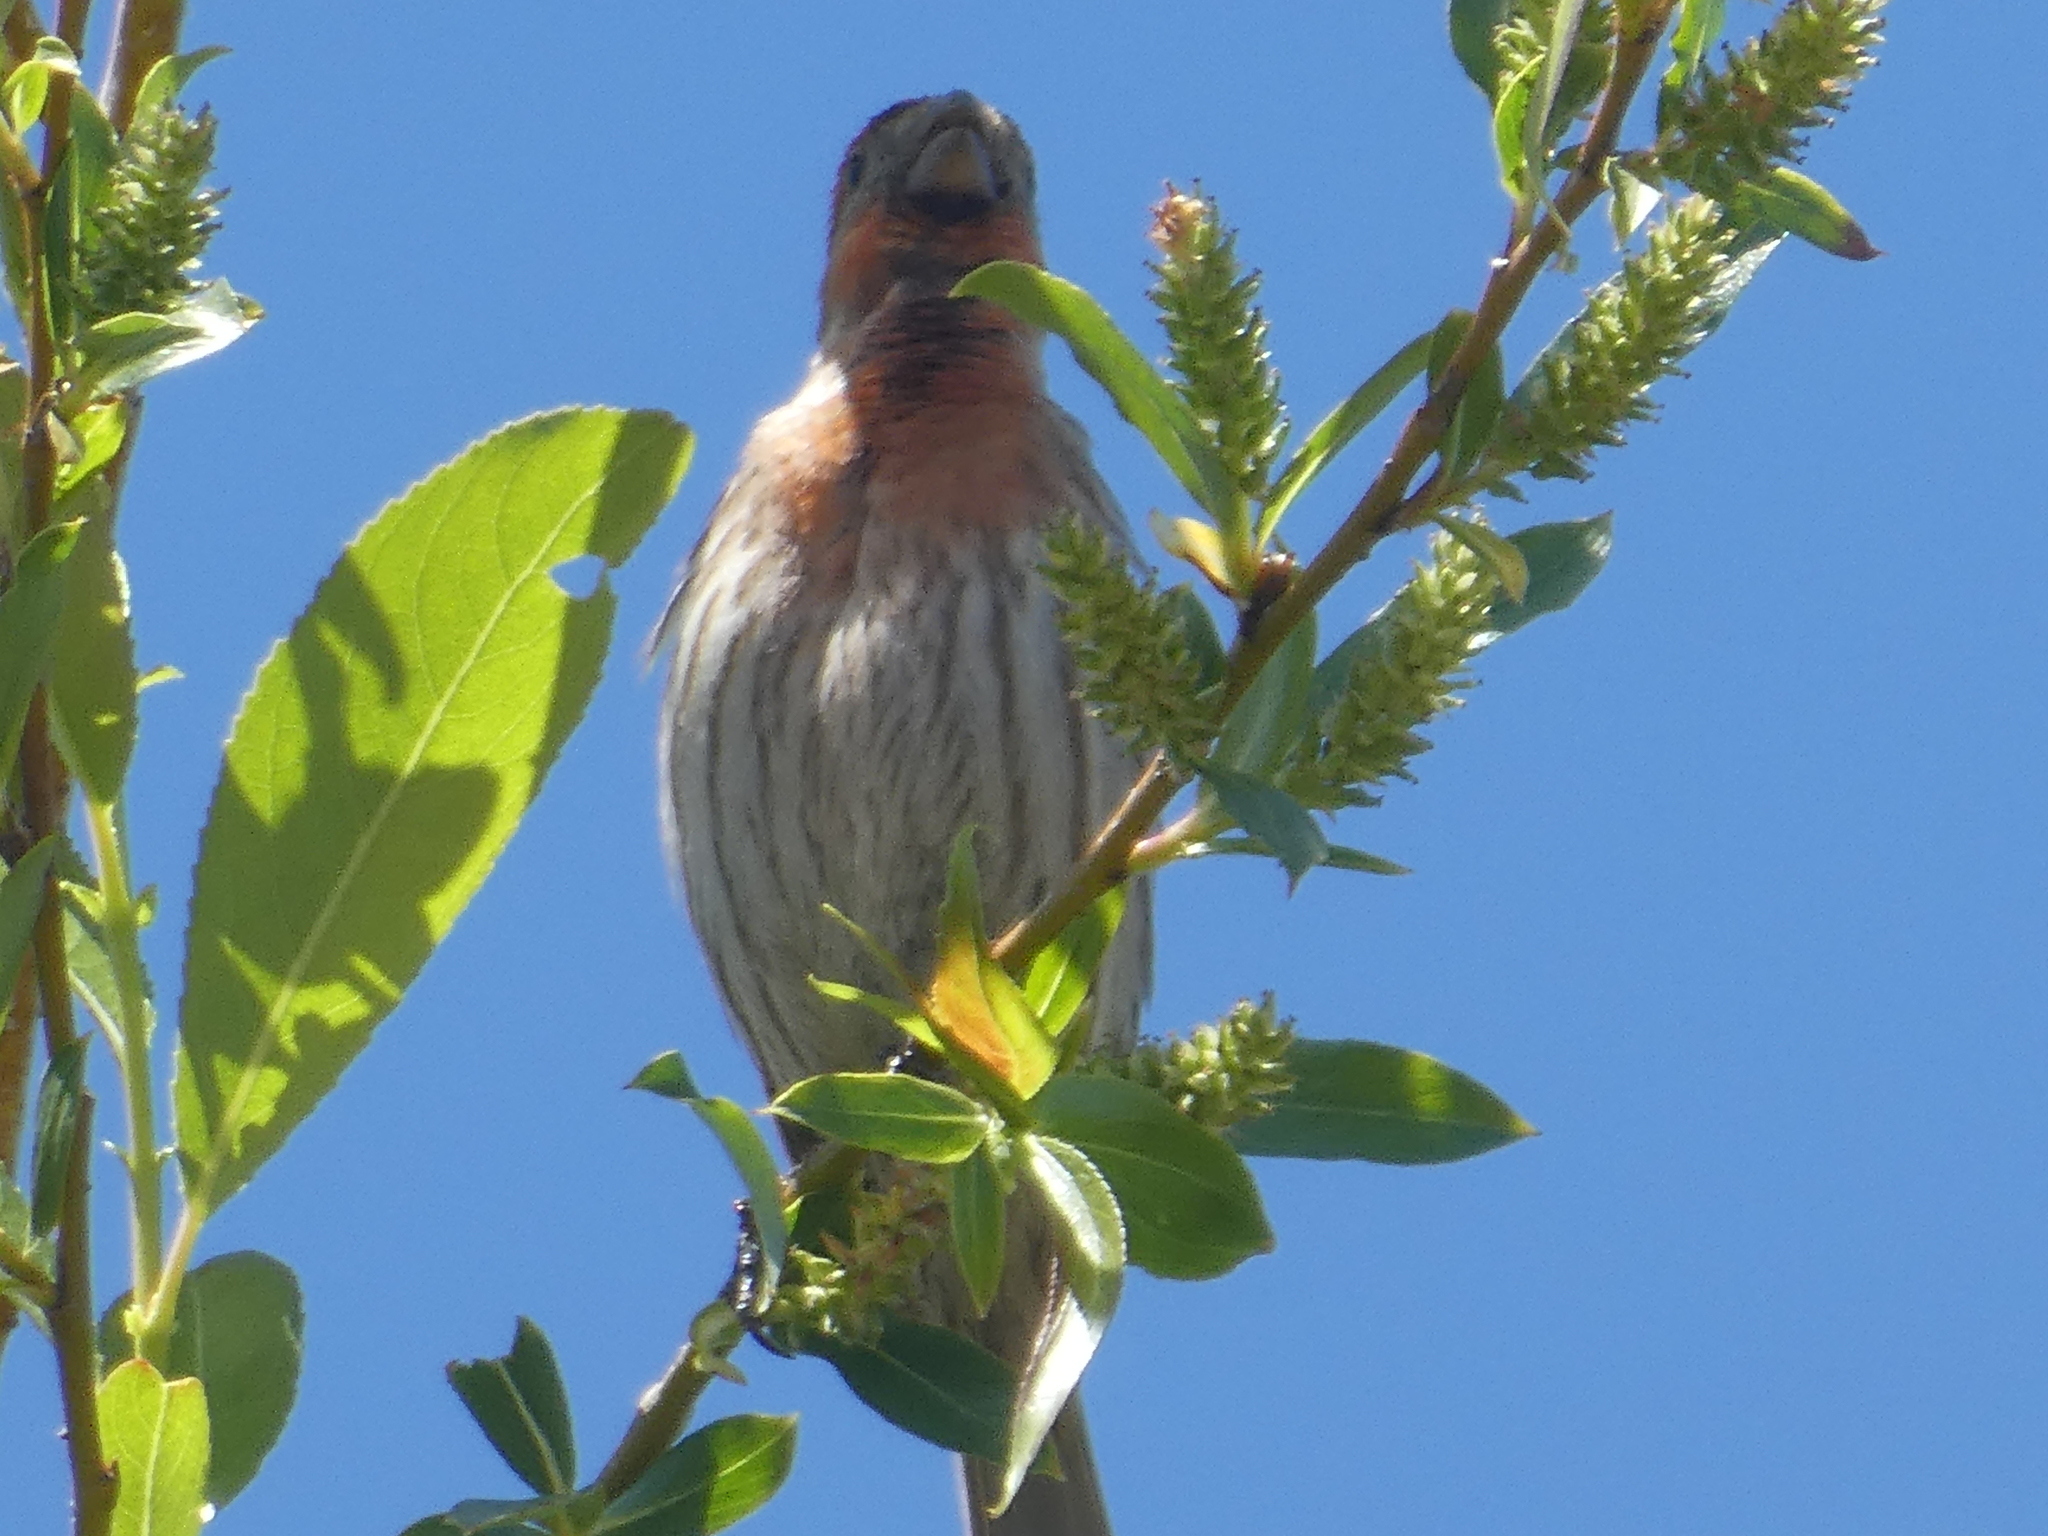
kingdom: Animalia
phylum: Chordata
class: Aves
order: Passeriformes
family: Fringillidae
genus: Haemorhous
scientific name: Haemorhous mexicanus
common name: House finch
